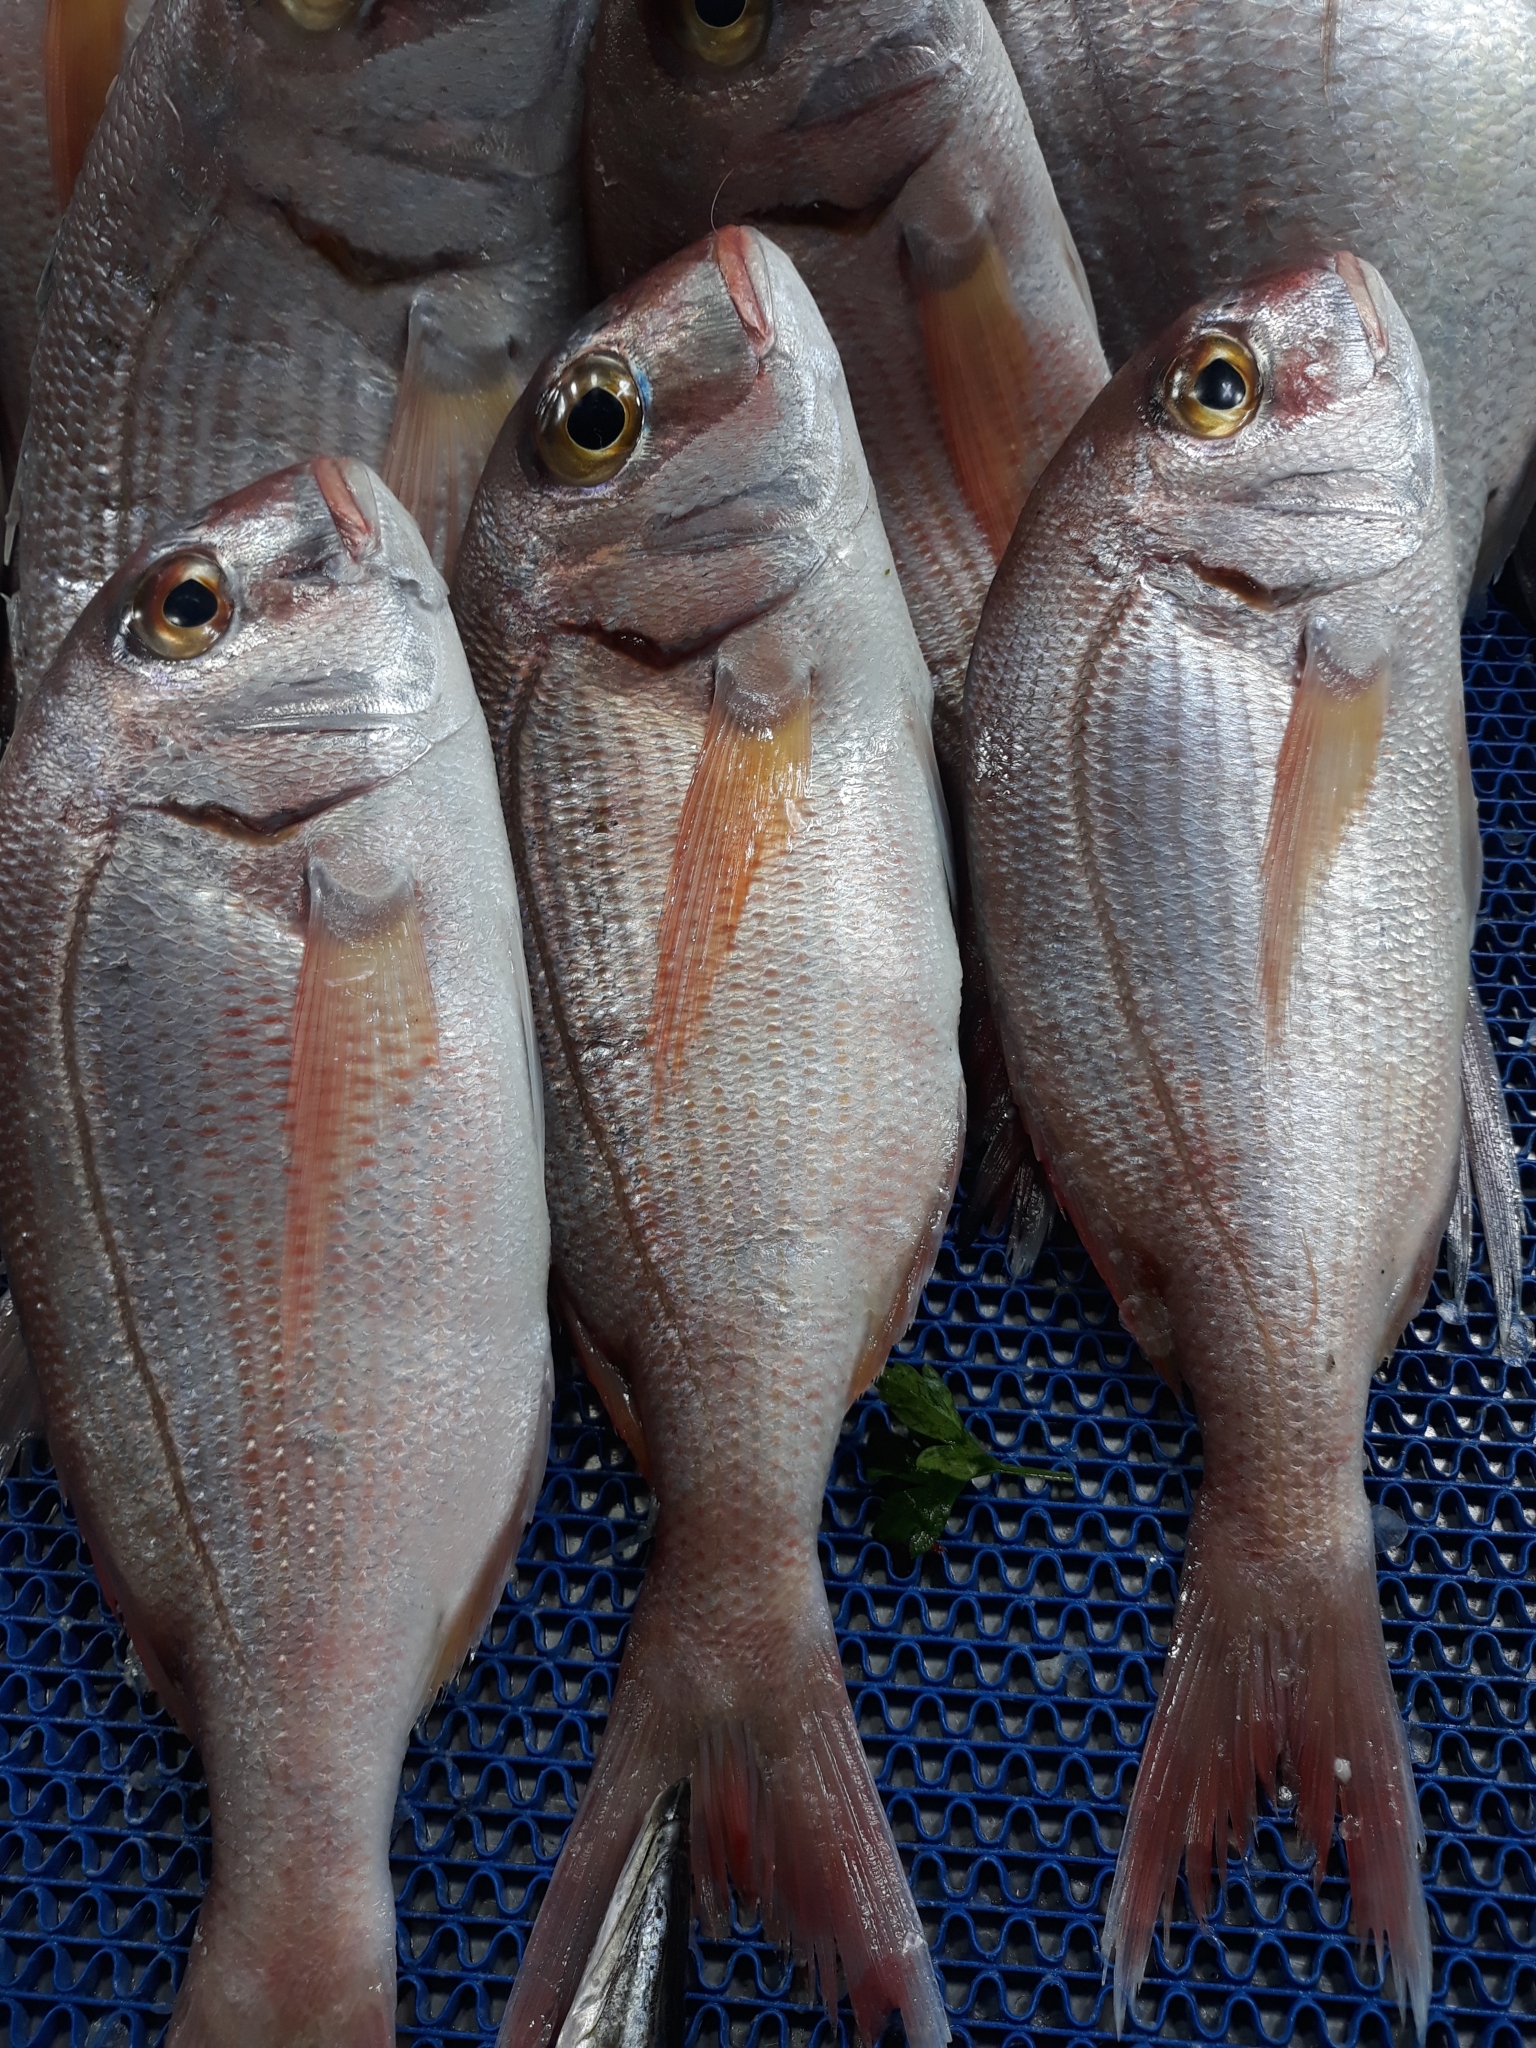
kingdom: Animalia
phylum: Chordata
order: Perciformes
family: Sparidae
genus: Pagrus
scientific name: Pagrus pagrus
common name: Red porgy
